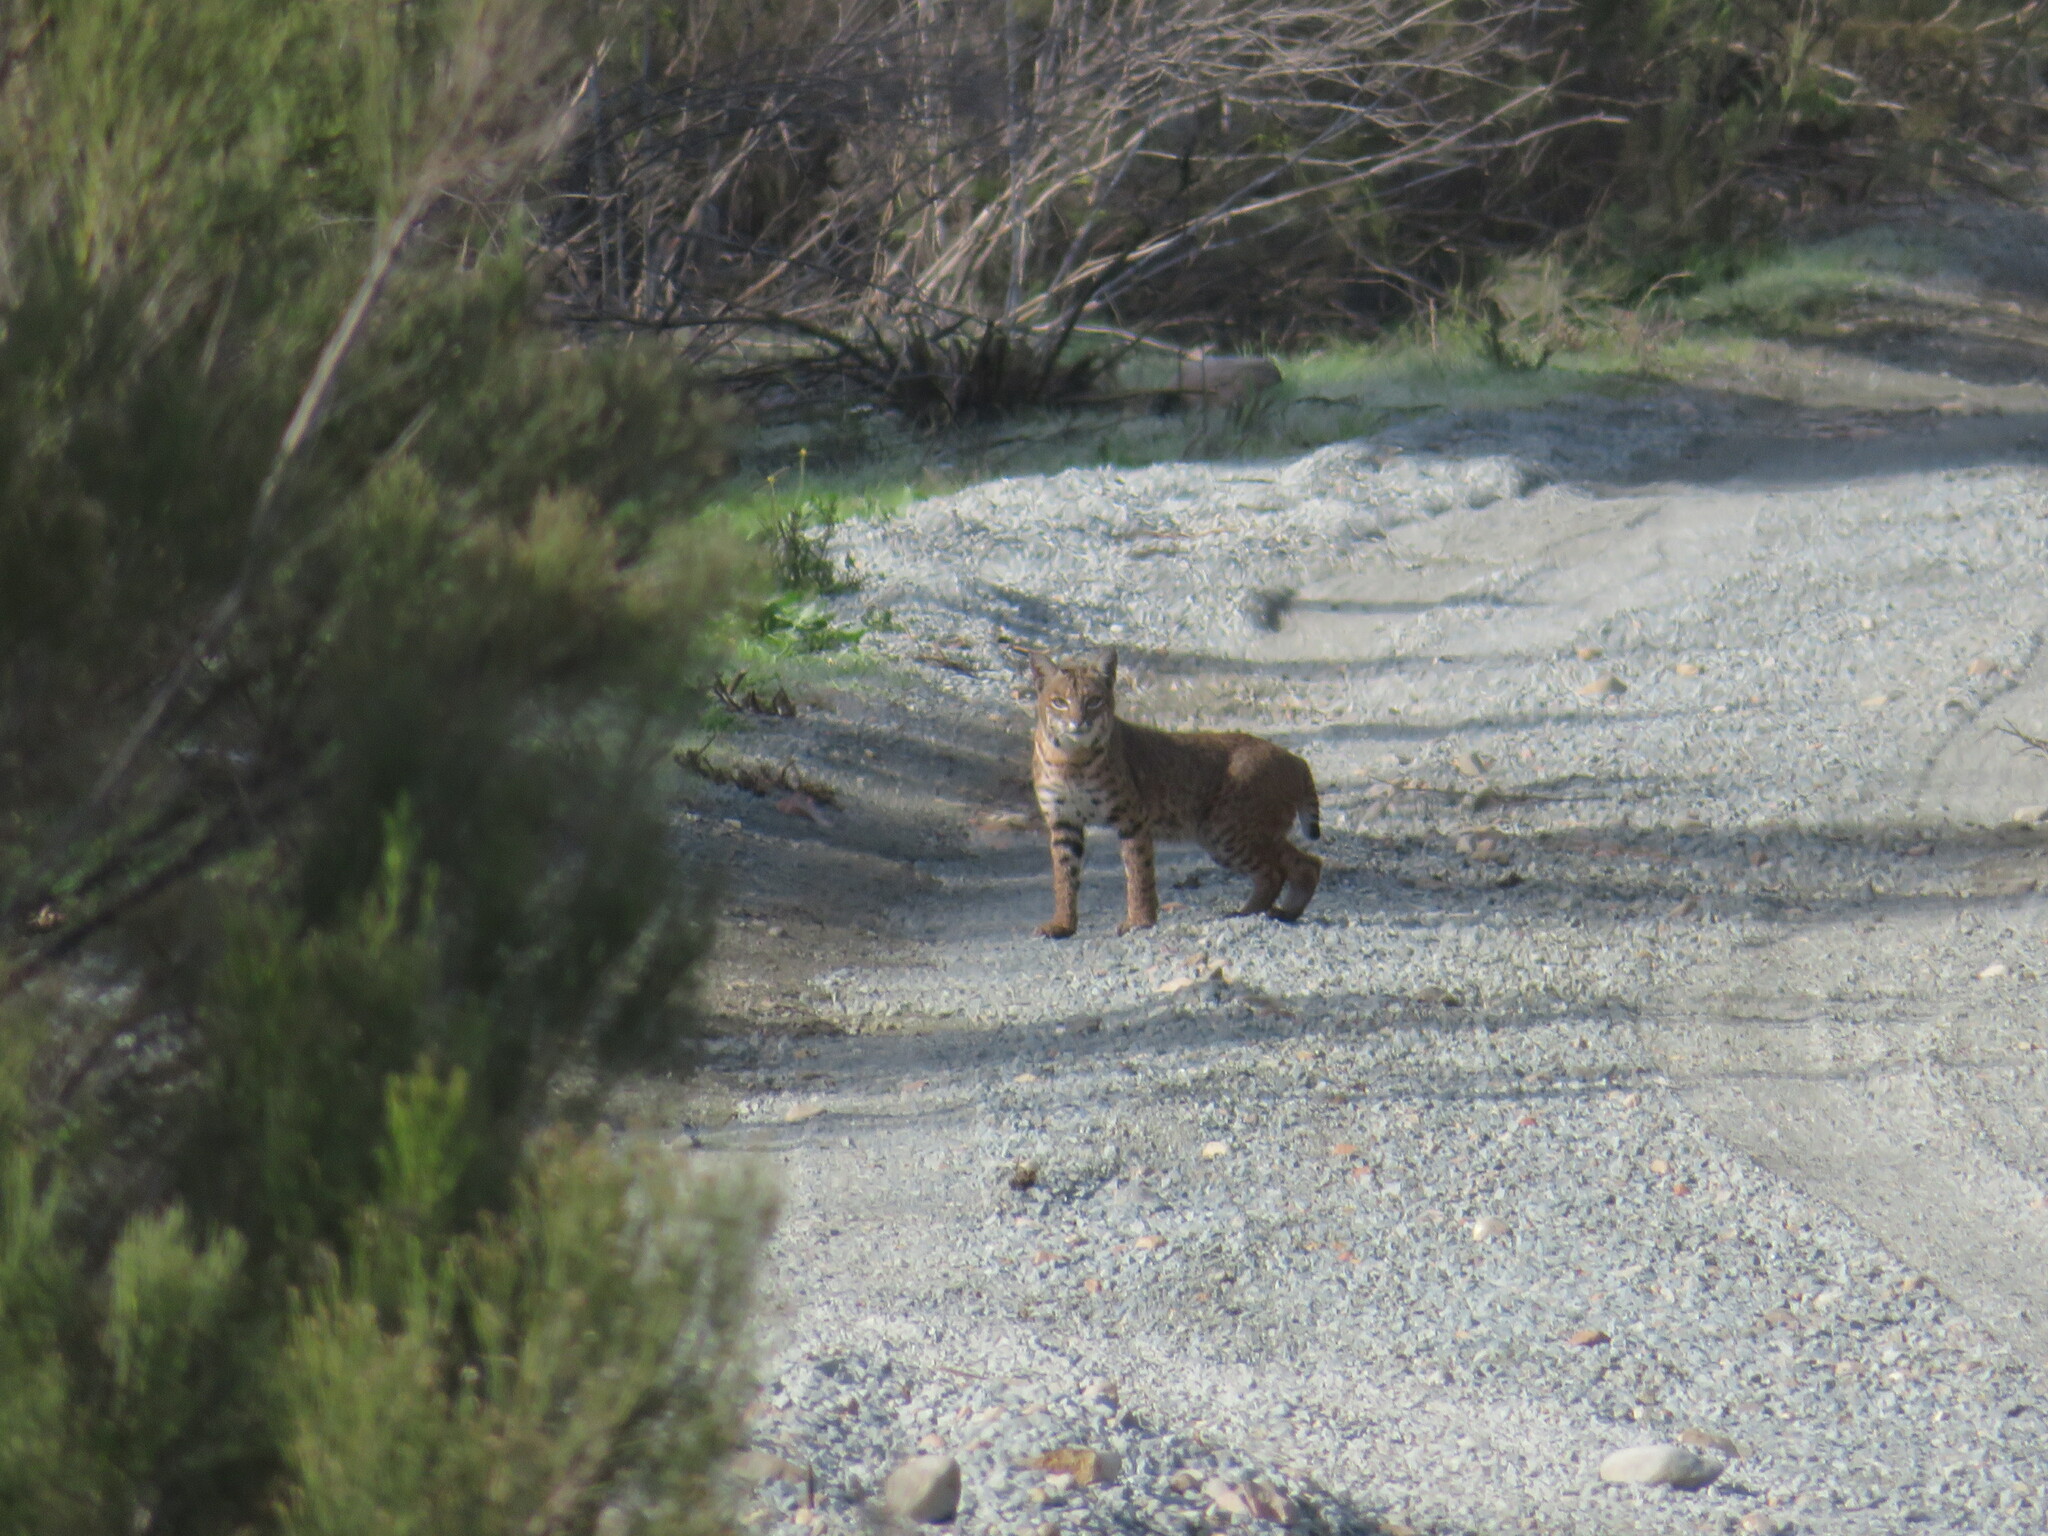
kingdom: Animalia
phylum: Chordata
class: Mammalia
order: Carnivora
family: Felidae
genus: Lynx
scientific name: Lynx rufus
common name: Bobcat
